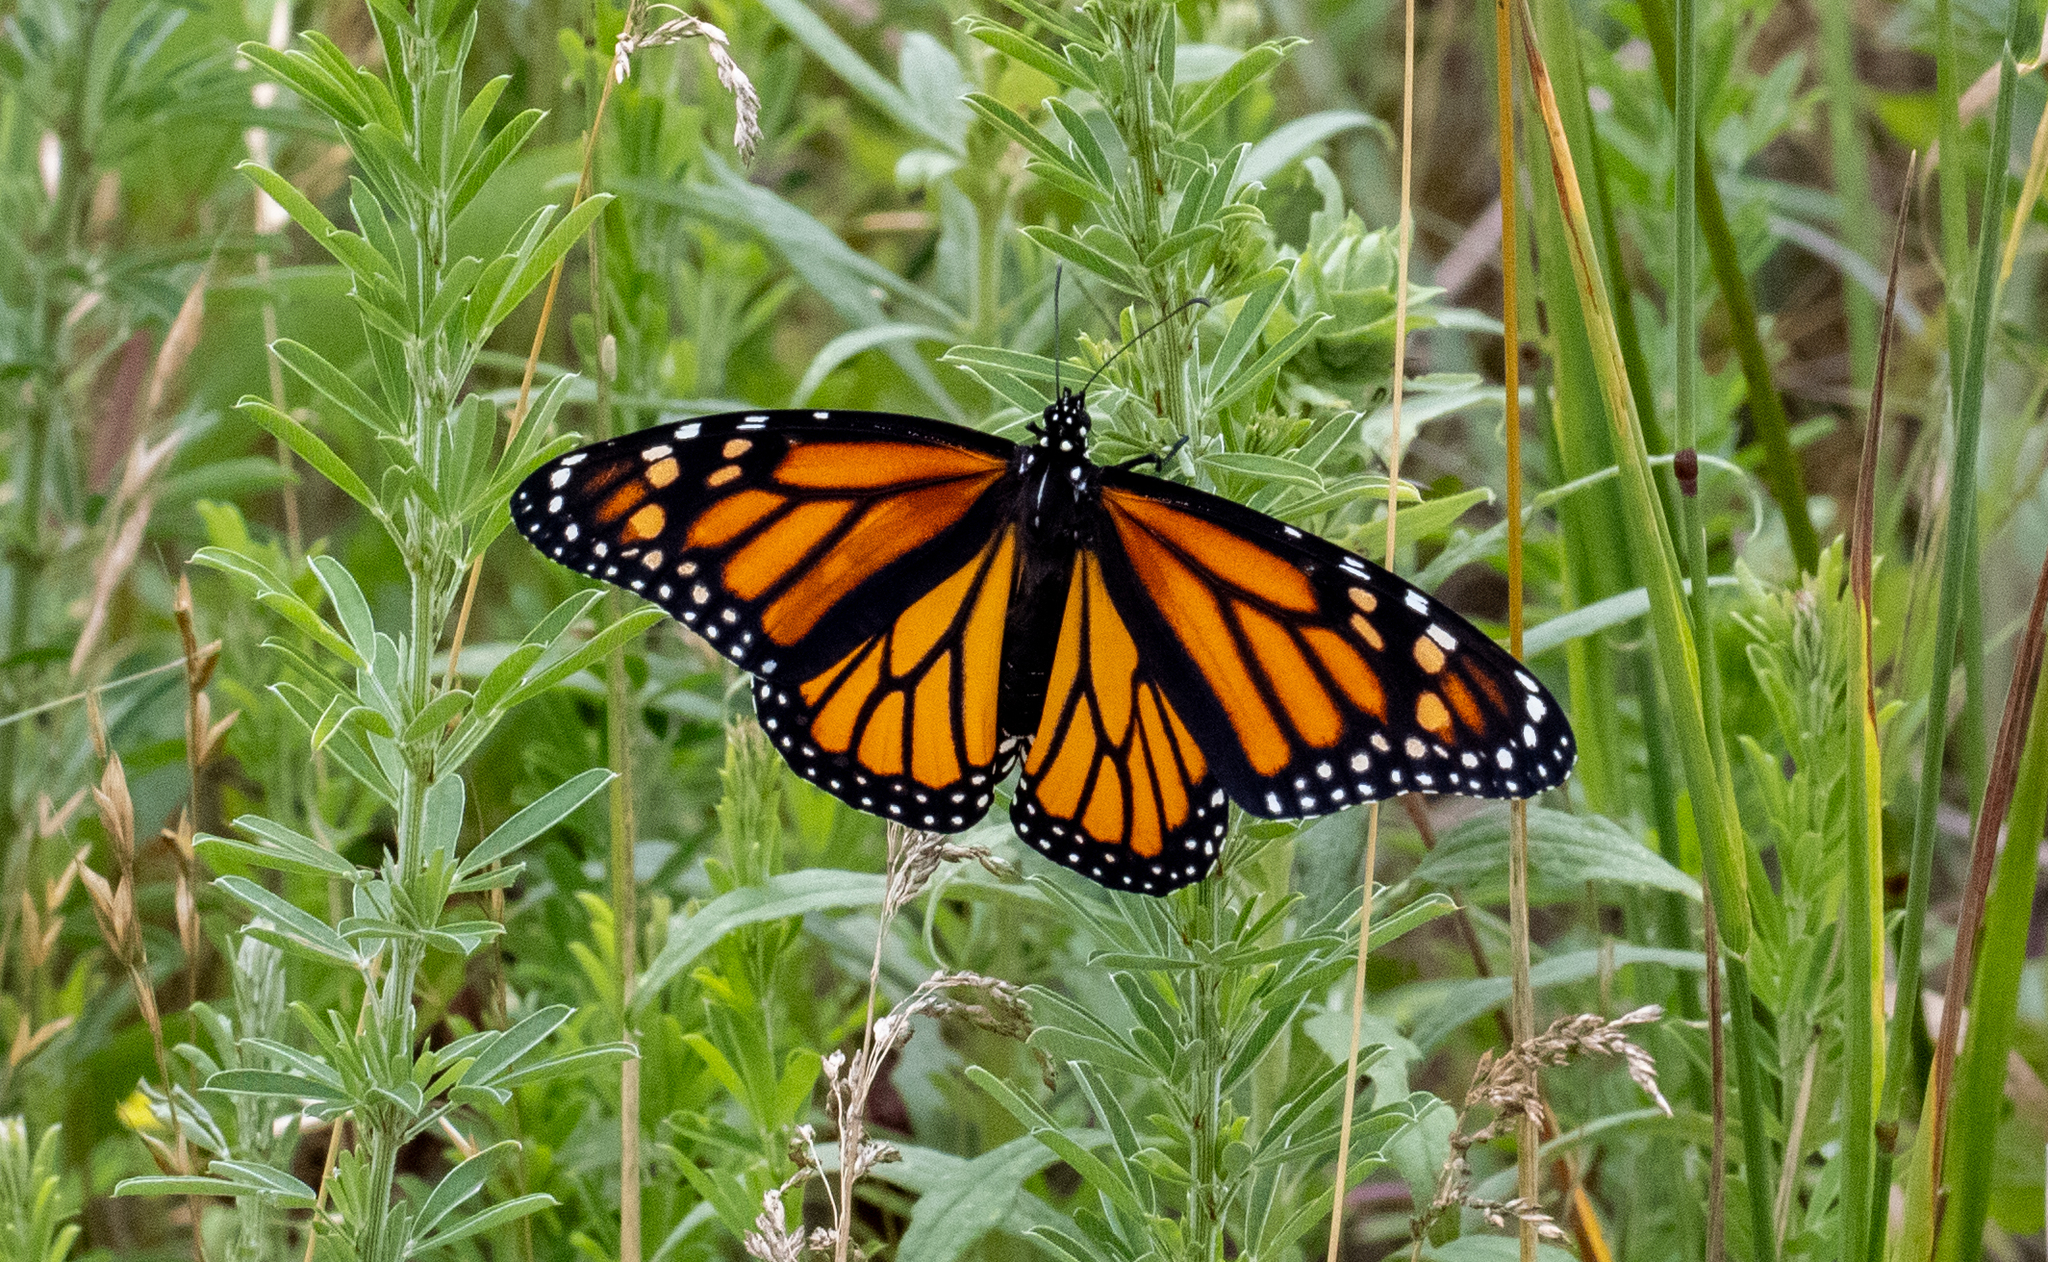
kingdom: Animalia
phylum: Arthropoda
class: Insecta
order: Lepidoptera
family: Nymphalidae
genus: Danaus
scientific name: Danaus plexippus
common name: Monarch
